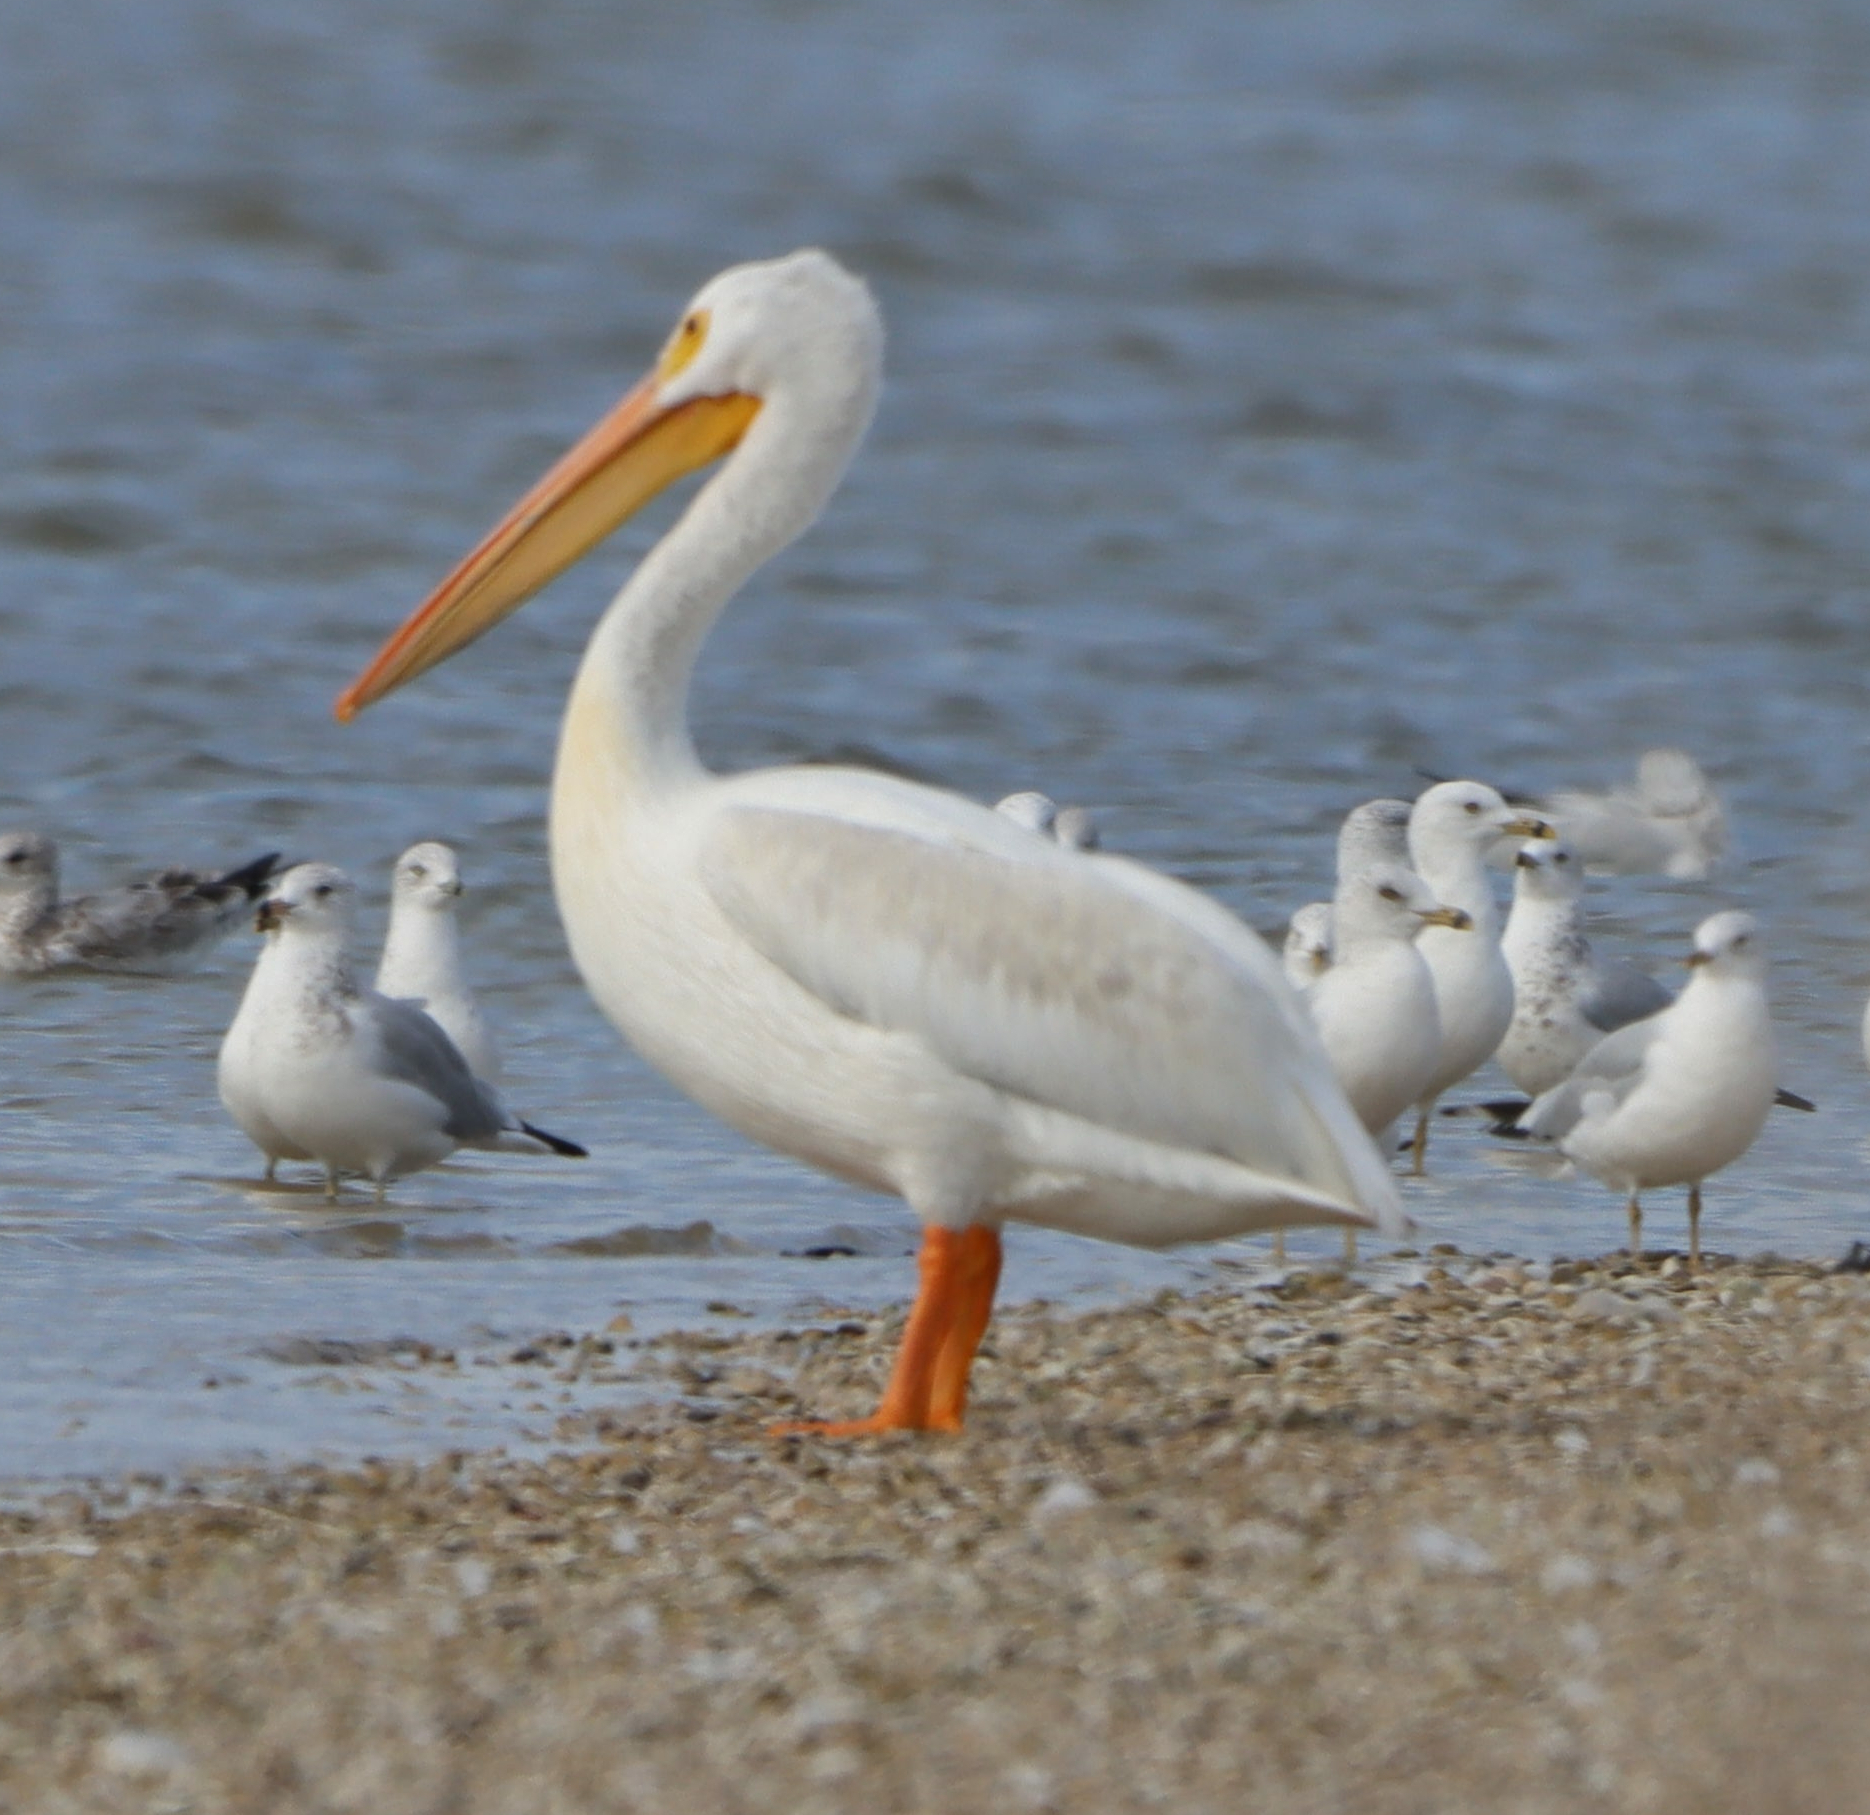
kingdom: Animalia
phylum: Chordata
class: Aves
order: Pelecaniformes
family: Pelecanidae
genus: Pelecanus
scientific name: Pelecanus erythrorhynchos
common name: American white pelican
